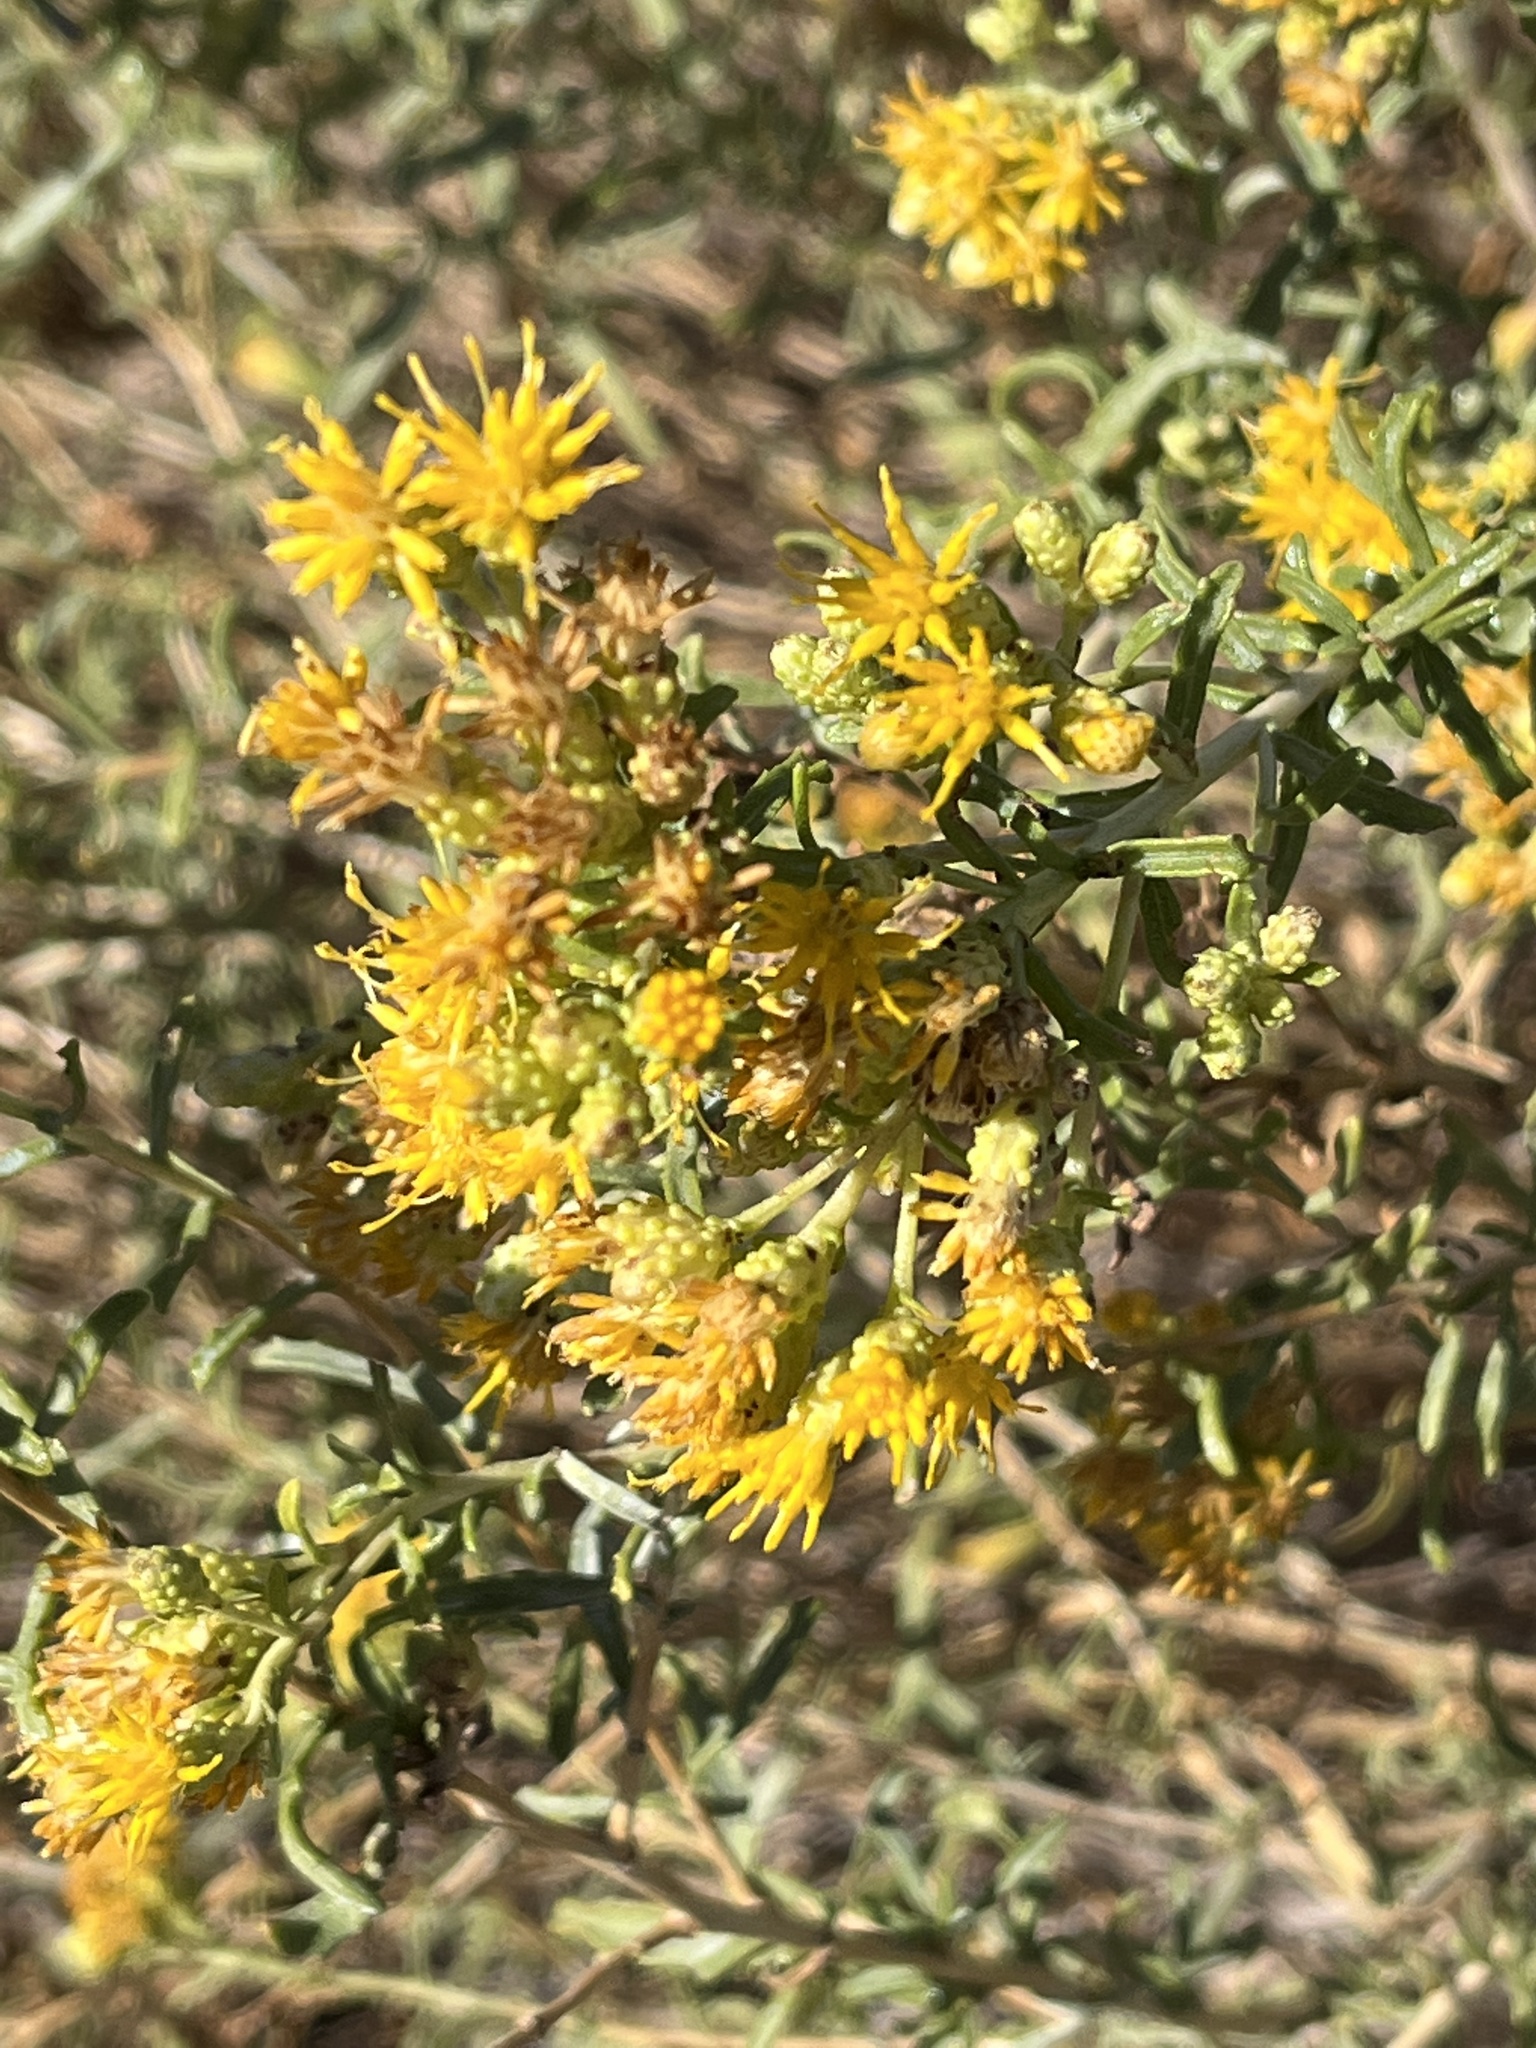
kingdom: Plantae
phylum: Tracheophyta
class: Magnoliopsida
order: Asterales
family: Asteraceae
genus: Isocoma
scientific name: Isocoma acradenia
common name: Alkali jimmyweed
